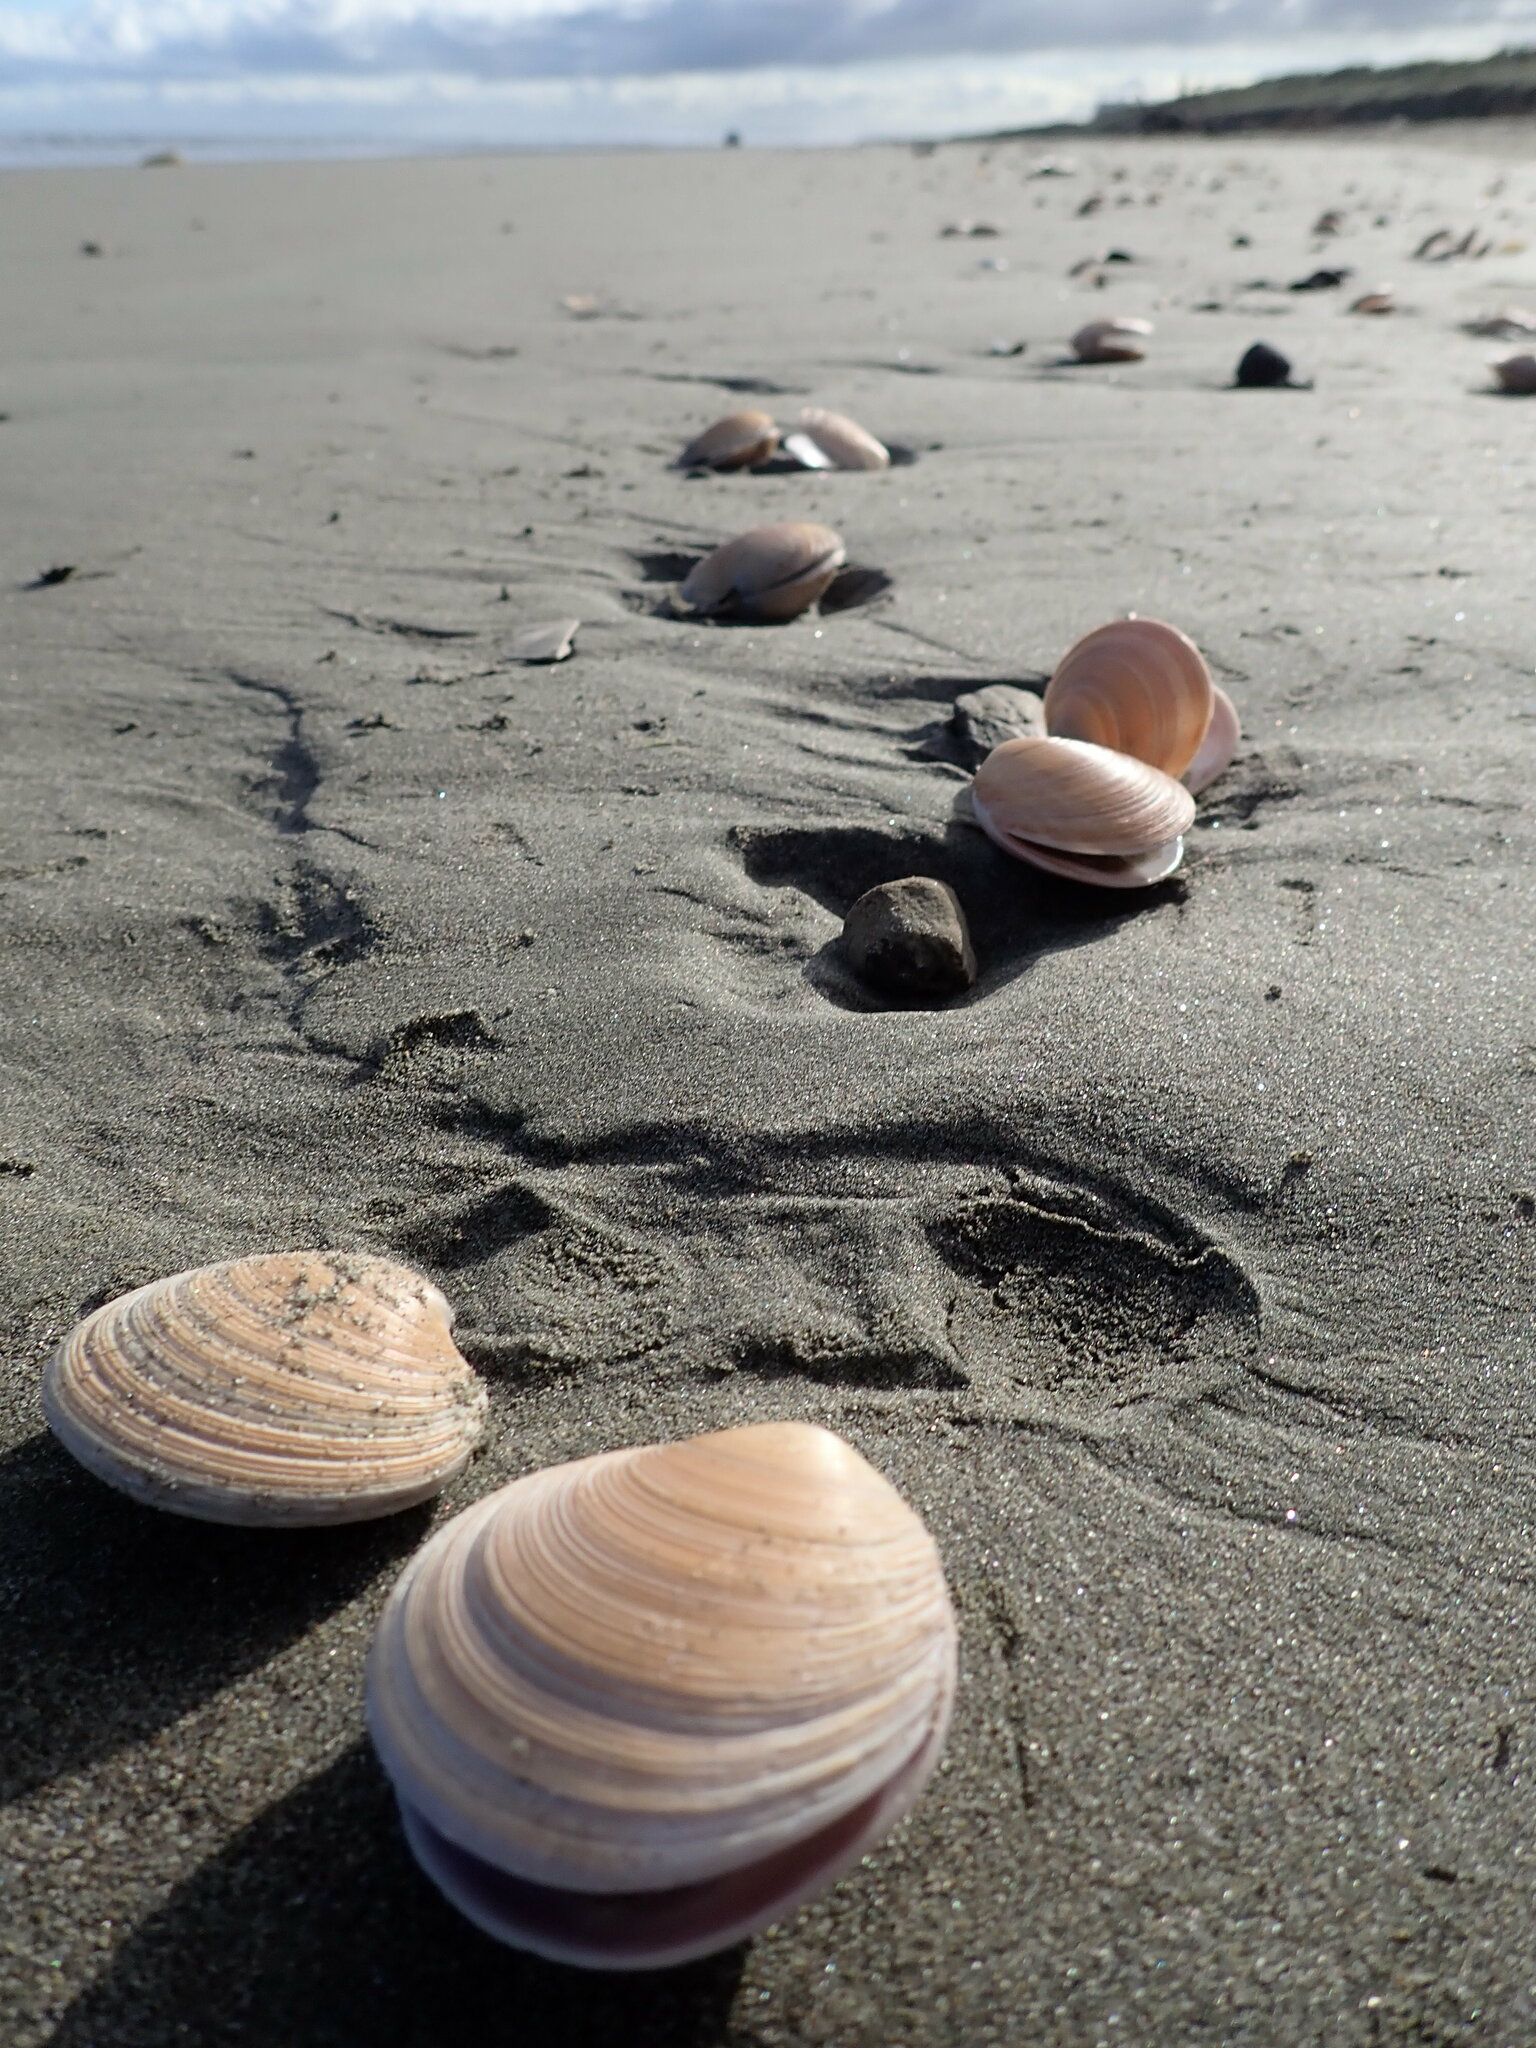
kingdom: Animalia
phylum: Mollusca
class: Bivalvia
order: Venerida
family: Veneridae
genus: Dosinia
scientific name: Dosinia anus
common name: Old-woman dosinia
